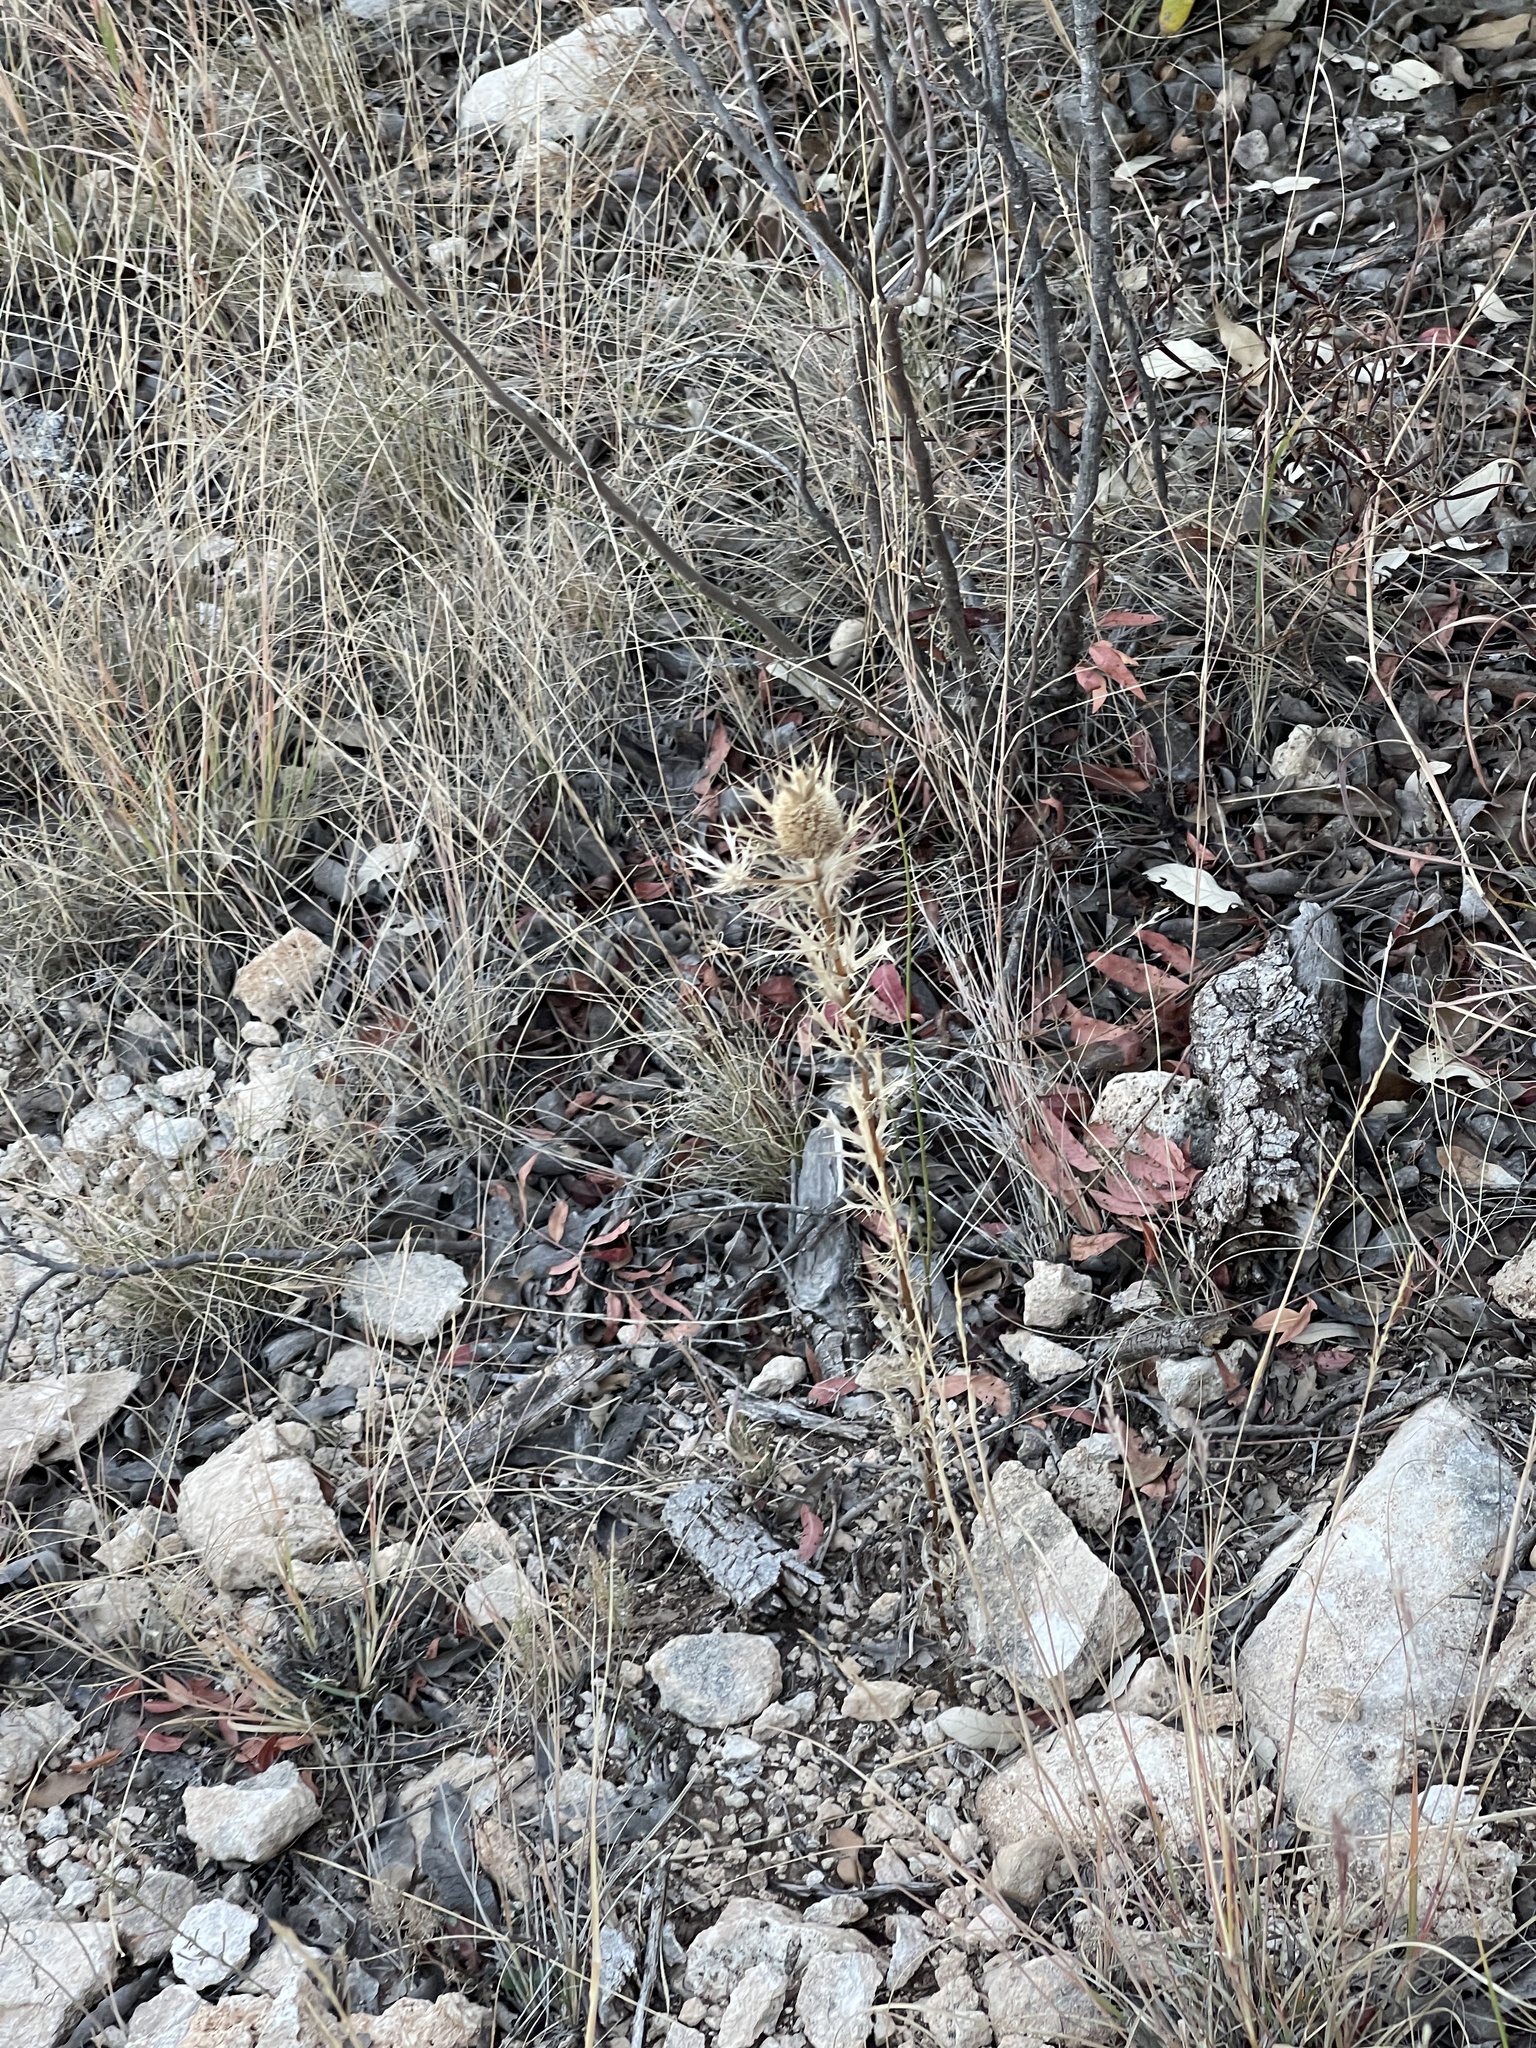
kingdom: Plantae
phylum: Tracheophyta
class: Magnoliopsida
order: Apiales
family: Apiaceae
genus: Eryngium
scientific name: Eryngium leavenworthii
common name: Leavenworth's eryngo
